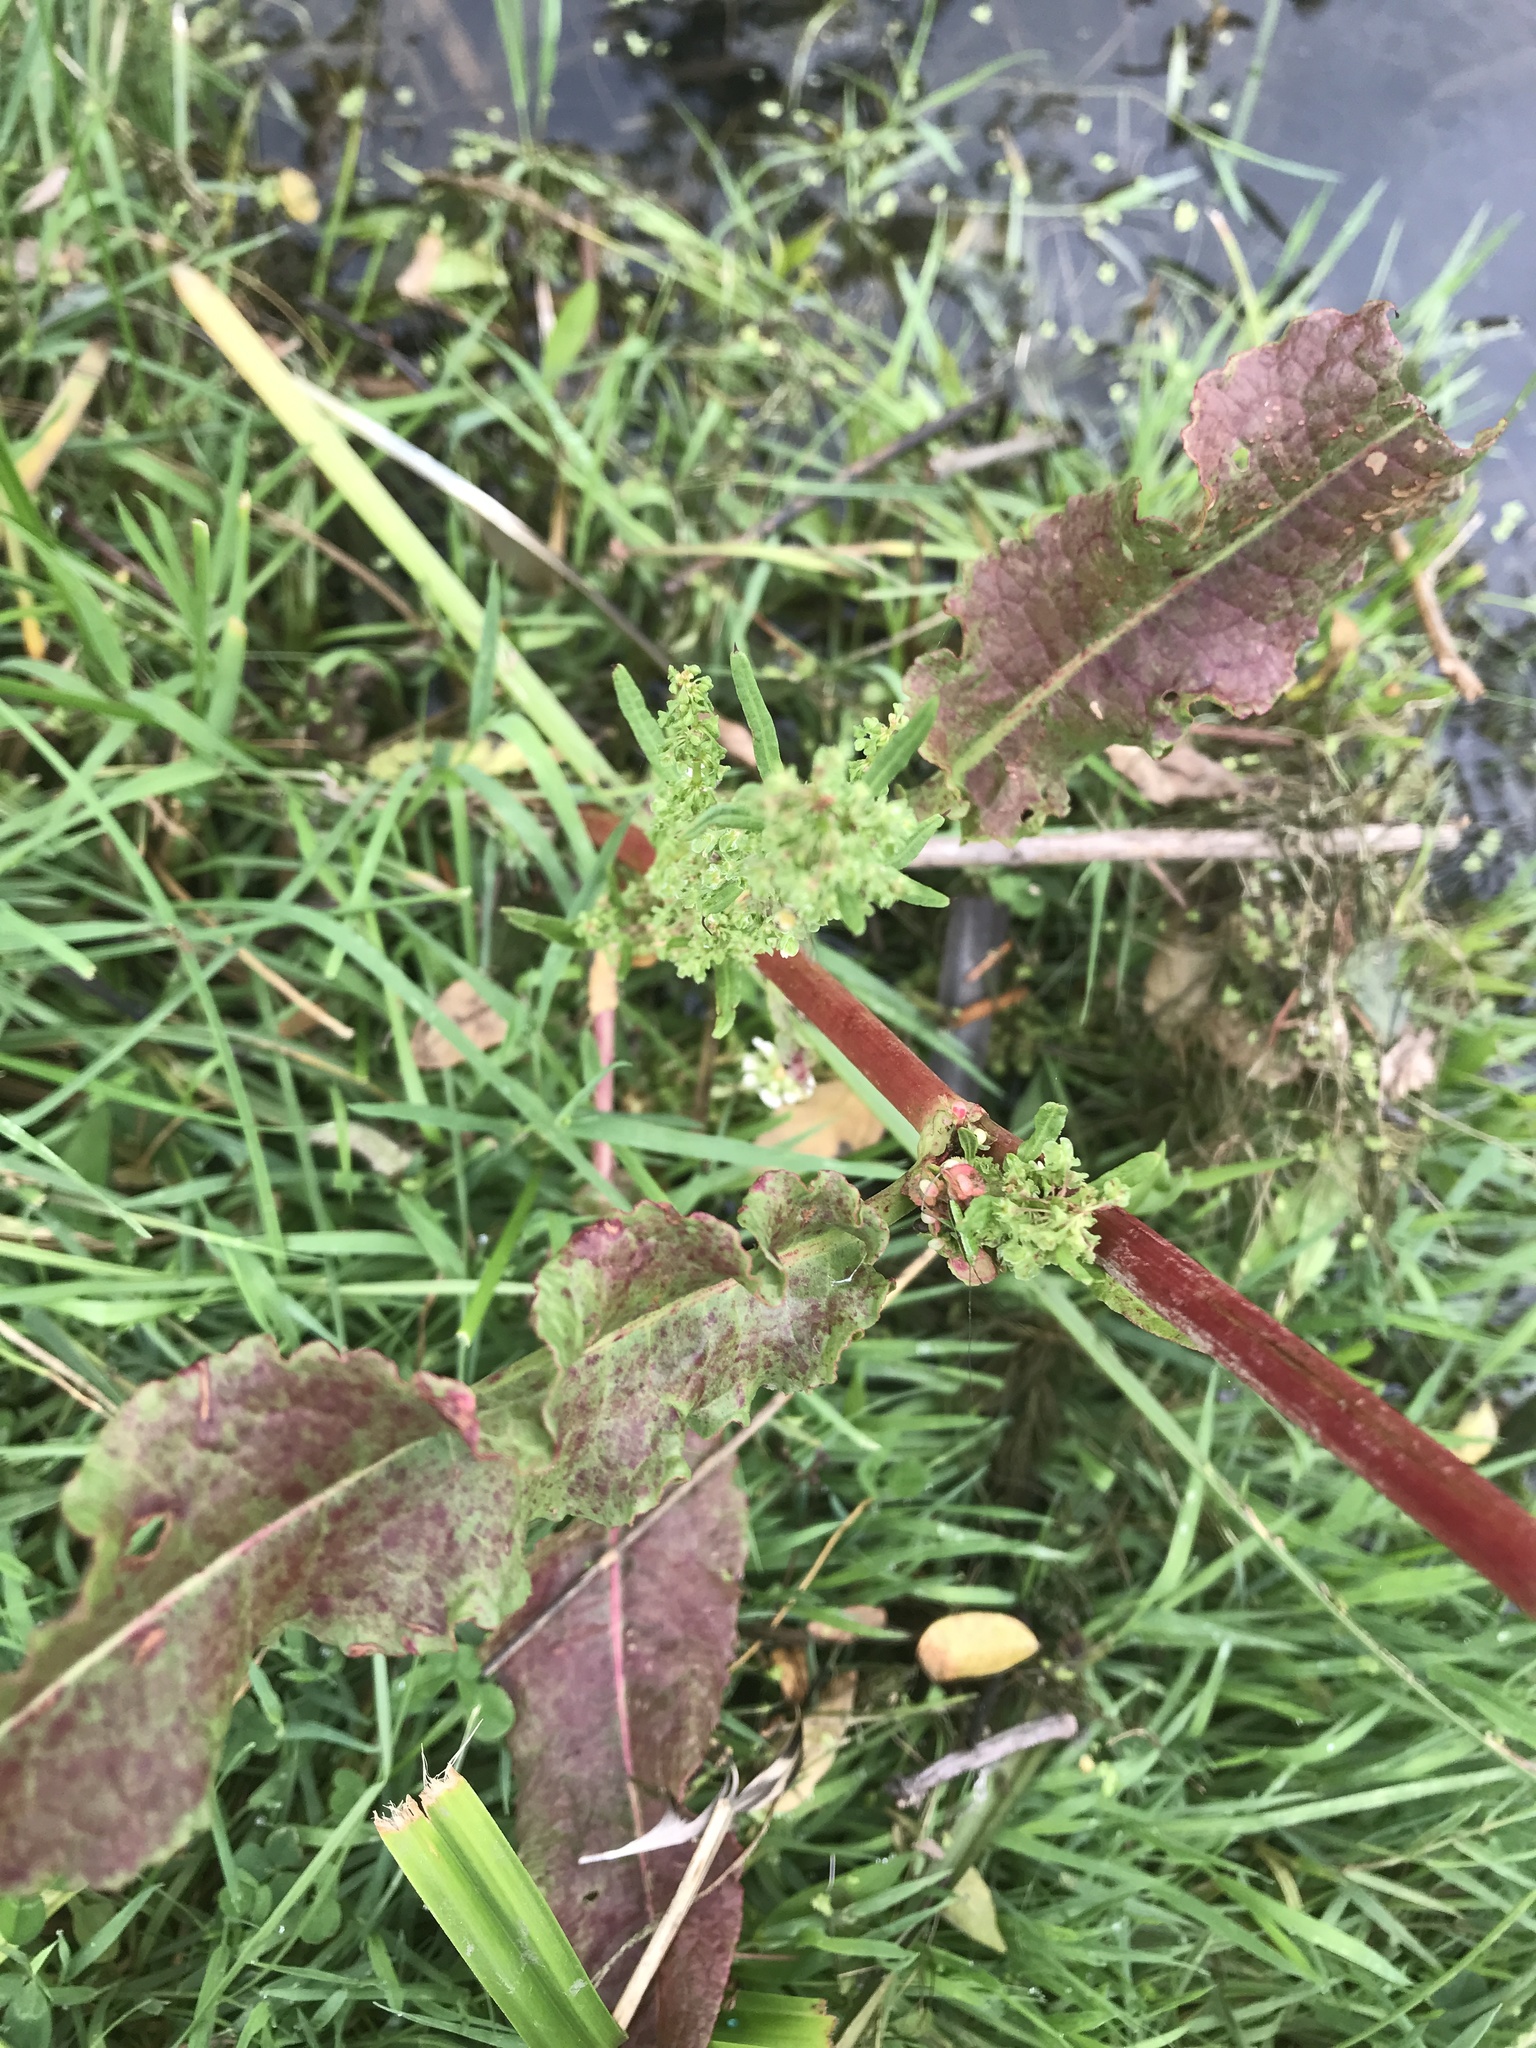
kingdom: Plantae
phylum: Tracheophyta
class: Magnoliopsida
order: Caryophyllales
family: Polygonaceae
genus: Rumex
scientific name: Rumex crispus
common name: Curled dock
